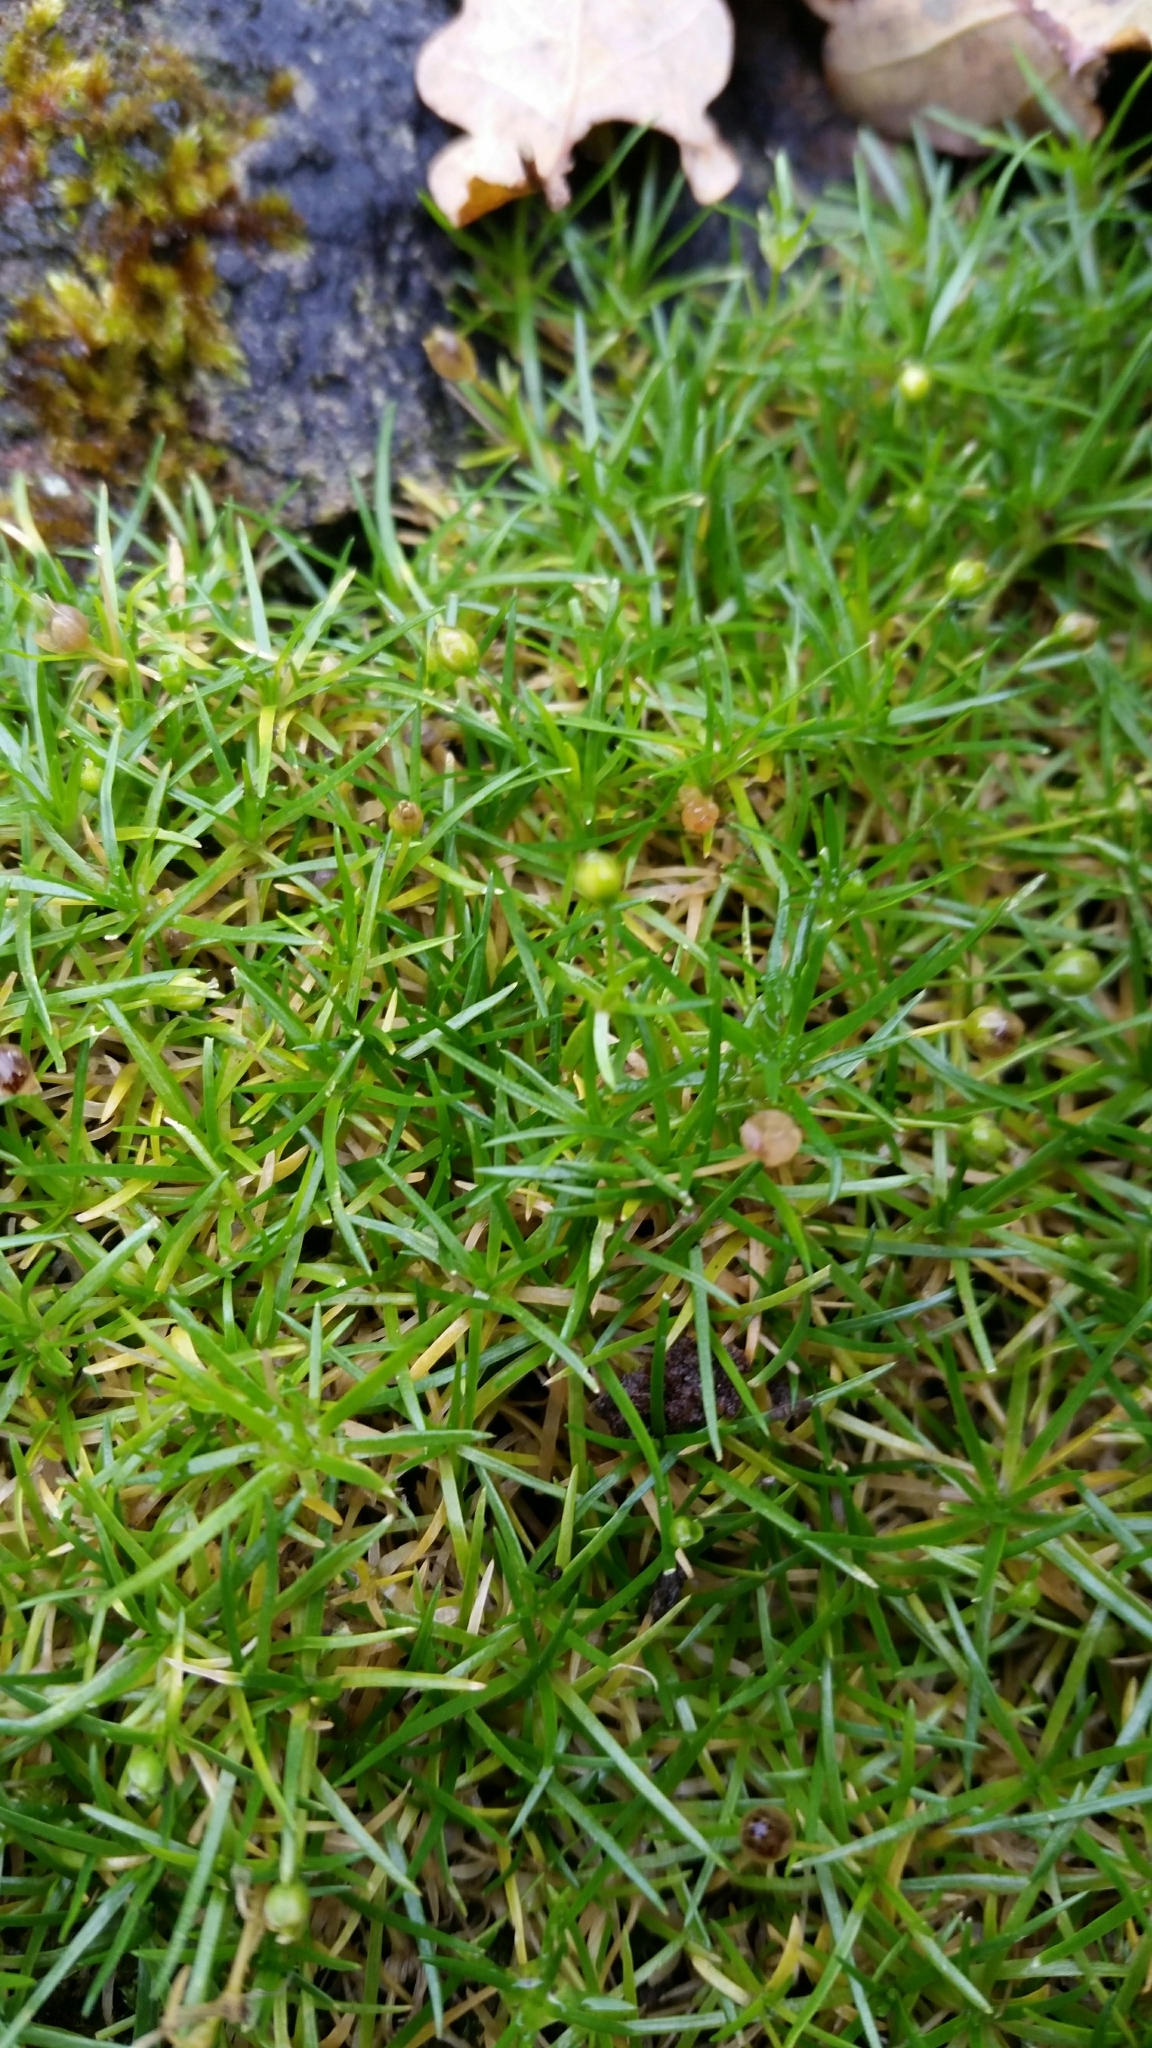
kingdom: Plantae
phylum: Tracheophyta
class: Magnoliopsida
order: Caryophyllales
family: Caryophyllaceae
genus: Sagina
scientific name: Sagina procumbens
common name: Procumbent pearlwort
